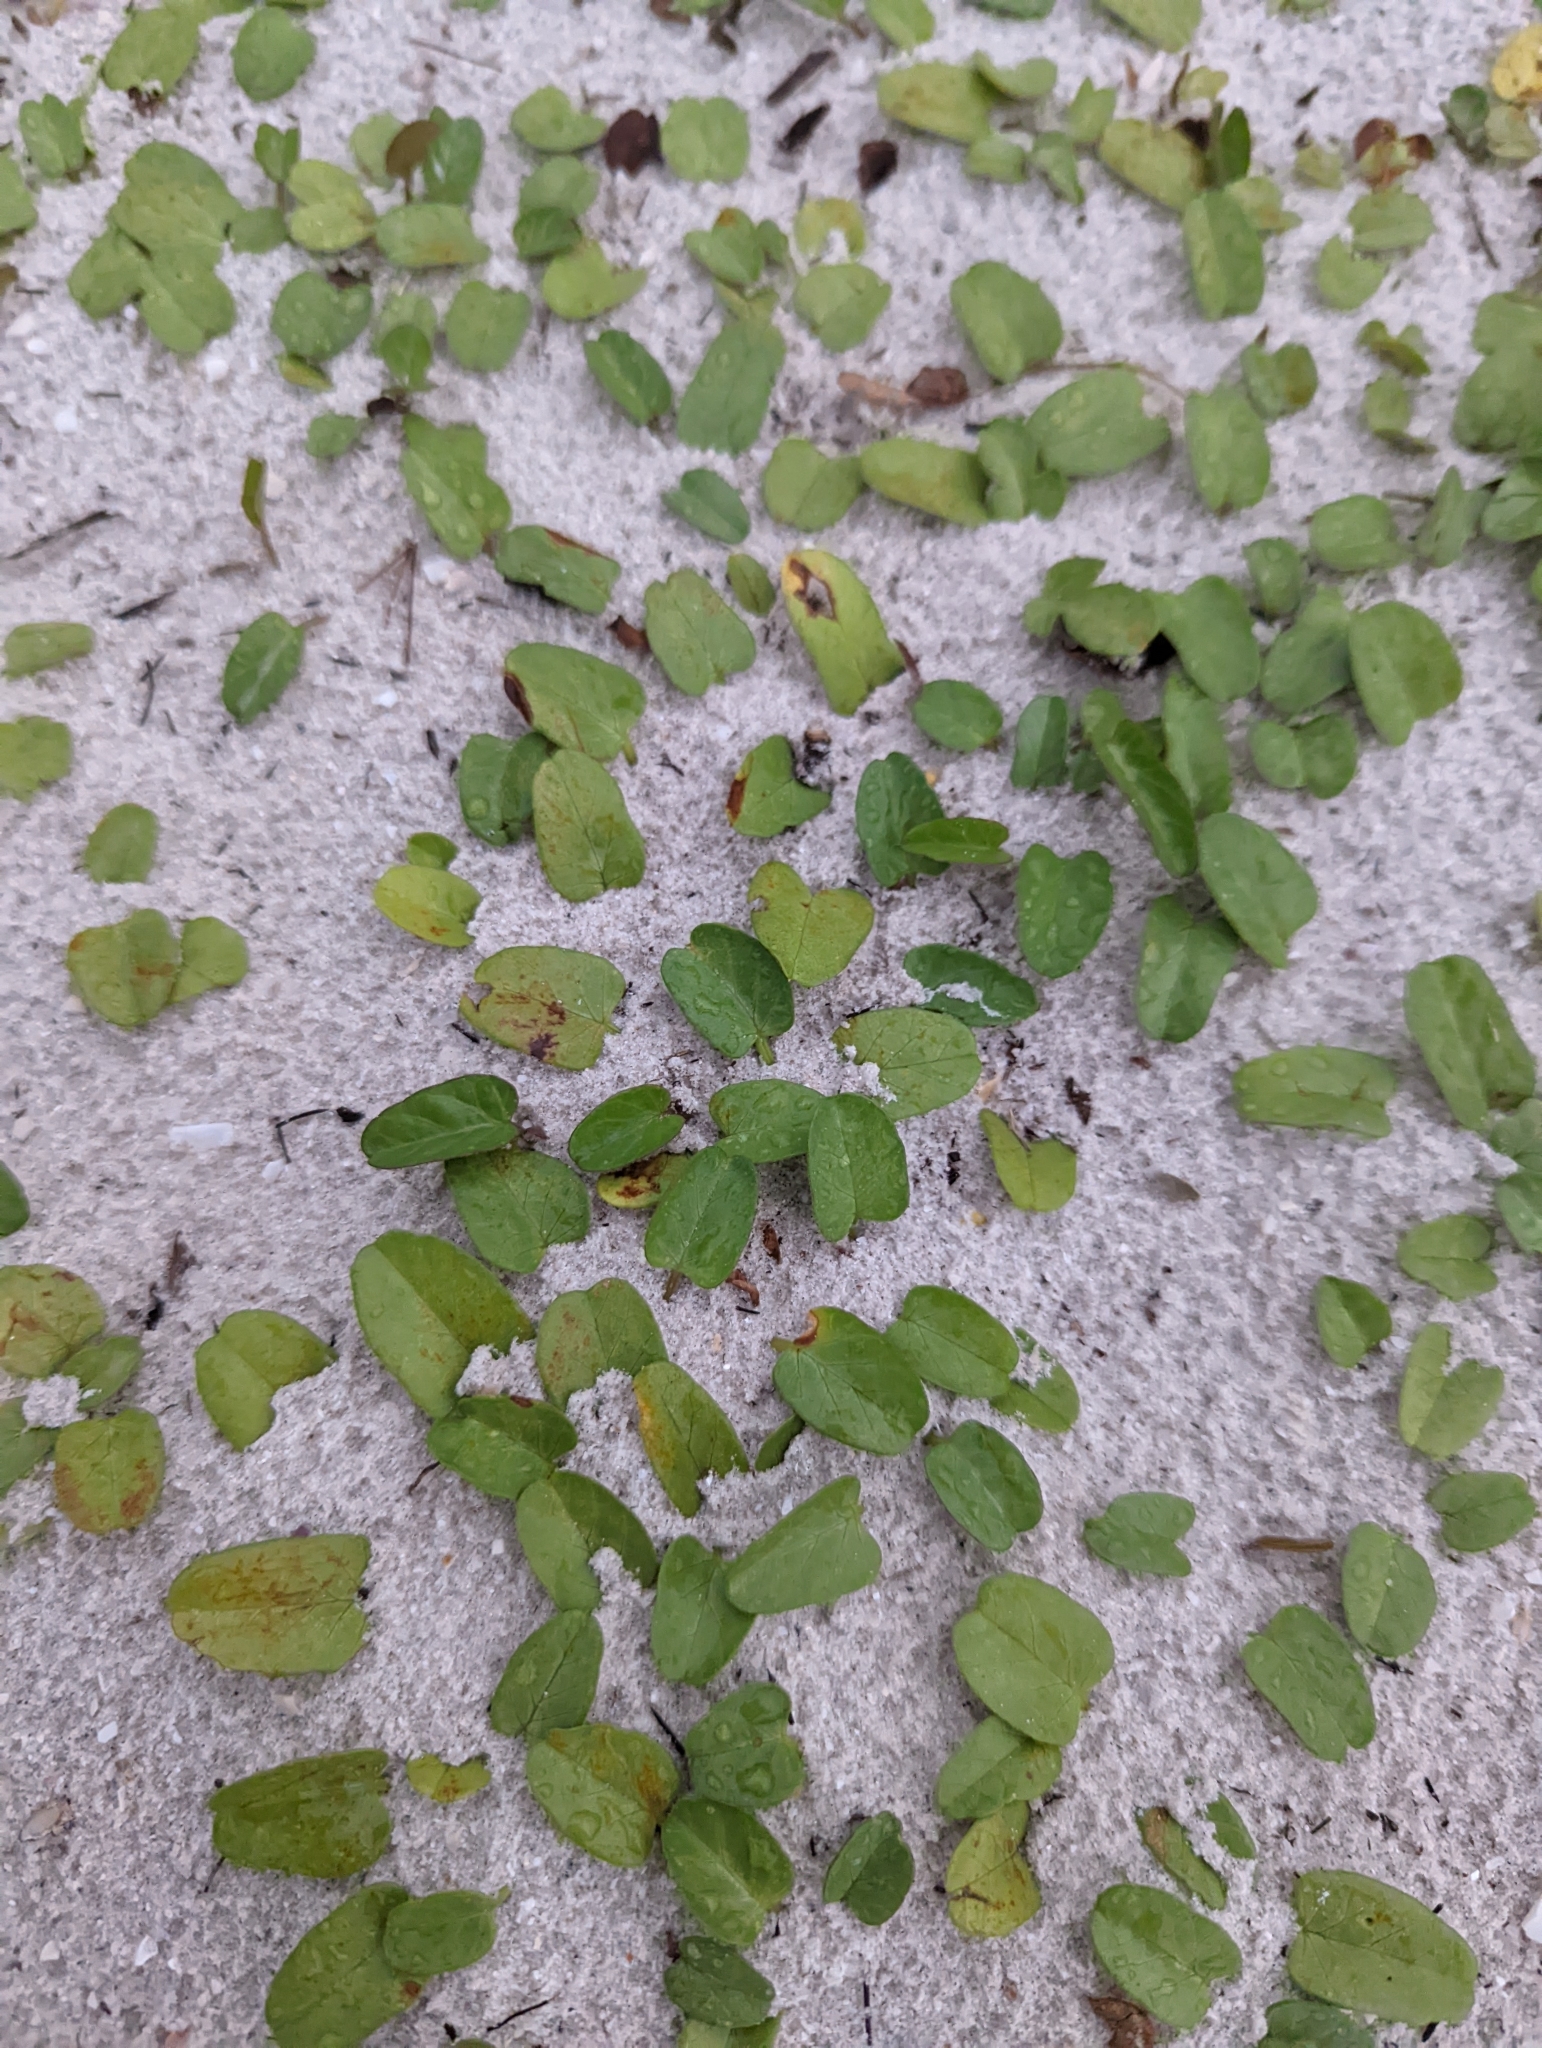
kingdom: Plantae
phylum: Tracheophyta
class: Magnoliopsida
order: Solanales
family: Convolvulaceae
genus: Ipomoea
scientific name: Ipomoea imperati
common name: Fiddle-leaf morning-glory
